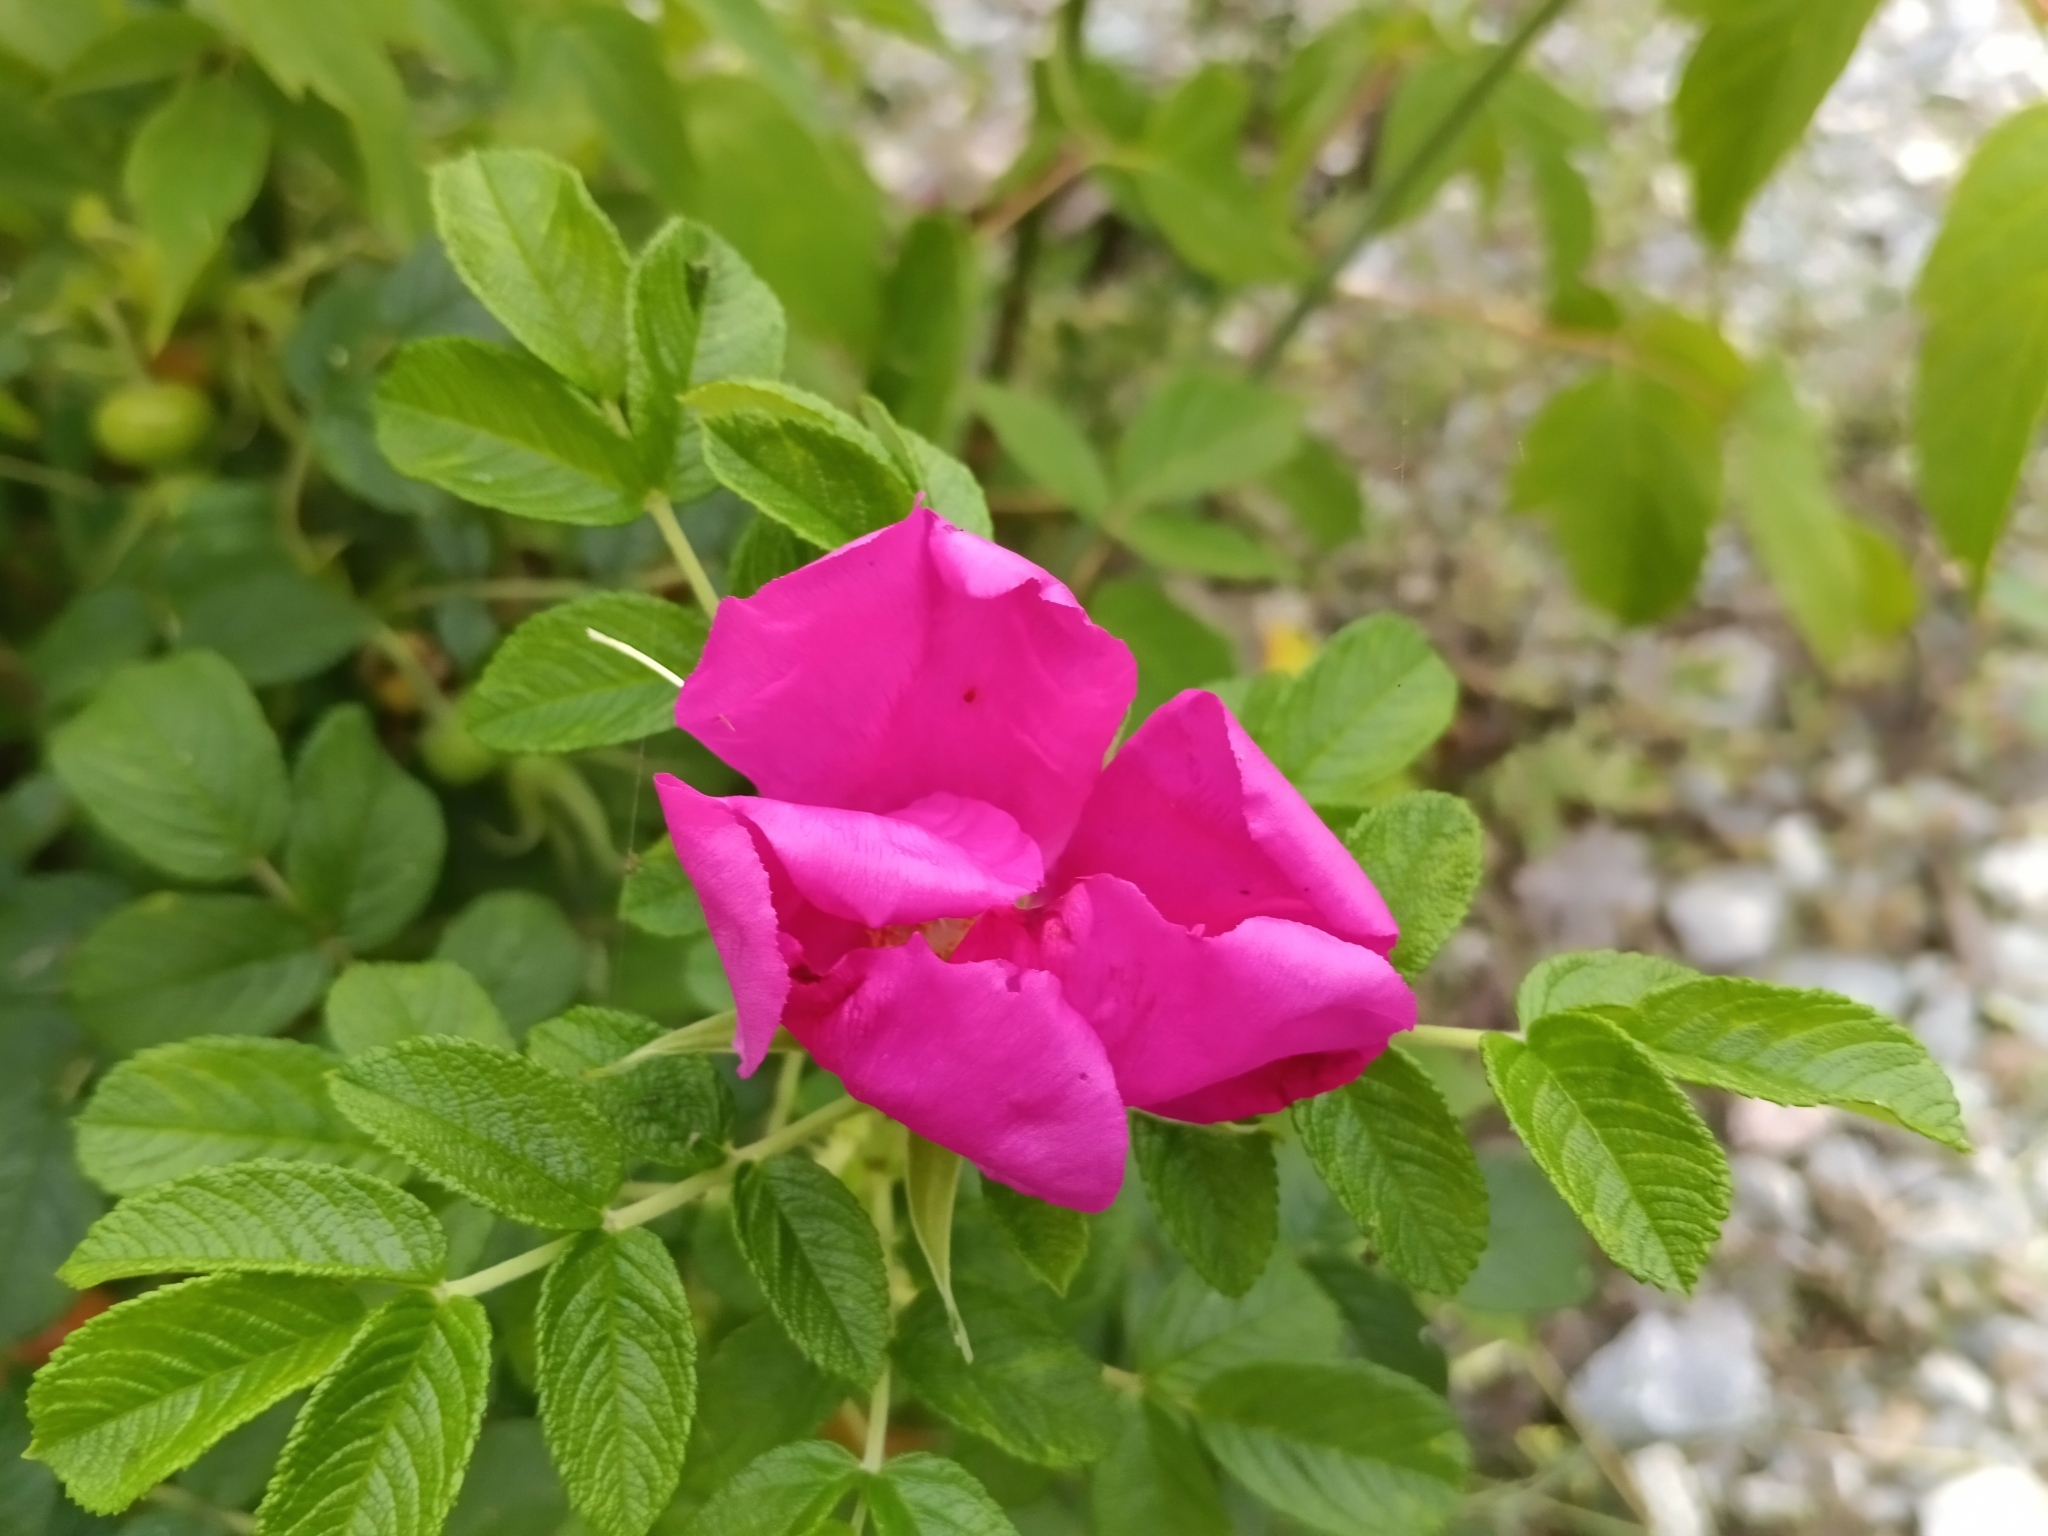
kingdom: Plantae
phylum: Tracheophyta
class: Magnoliopsida
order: Rosales
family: Rosaceae
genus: Rosa
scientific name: Rosa rugosa
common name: Japanese rose
